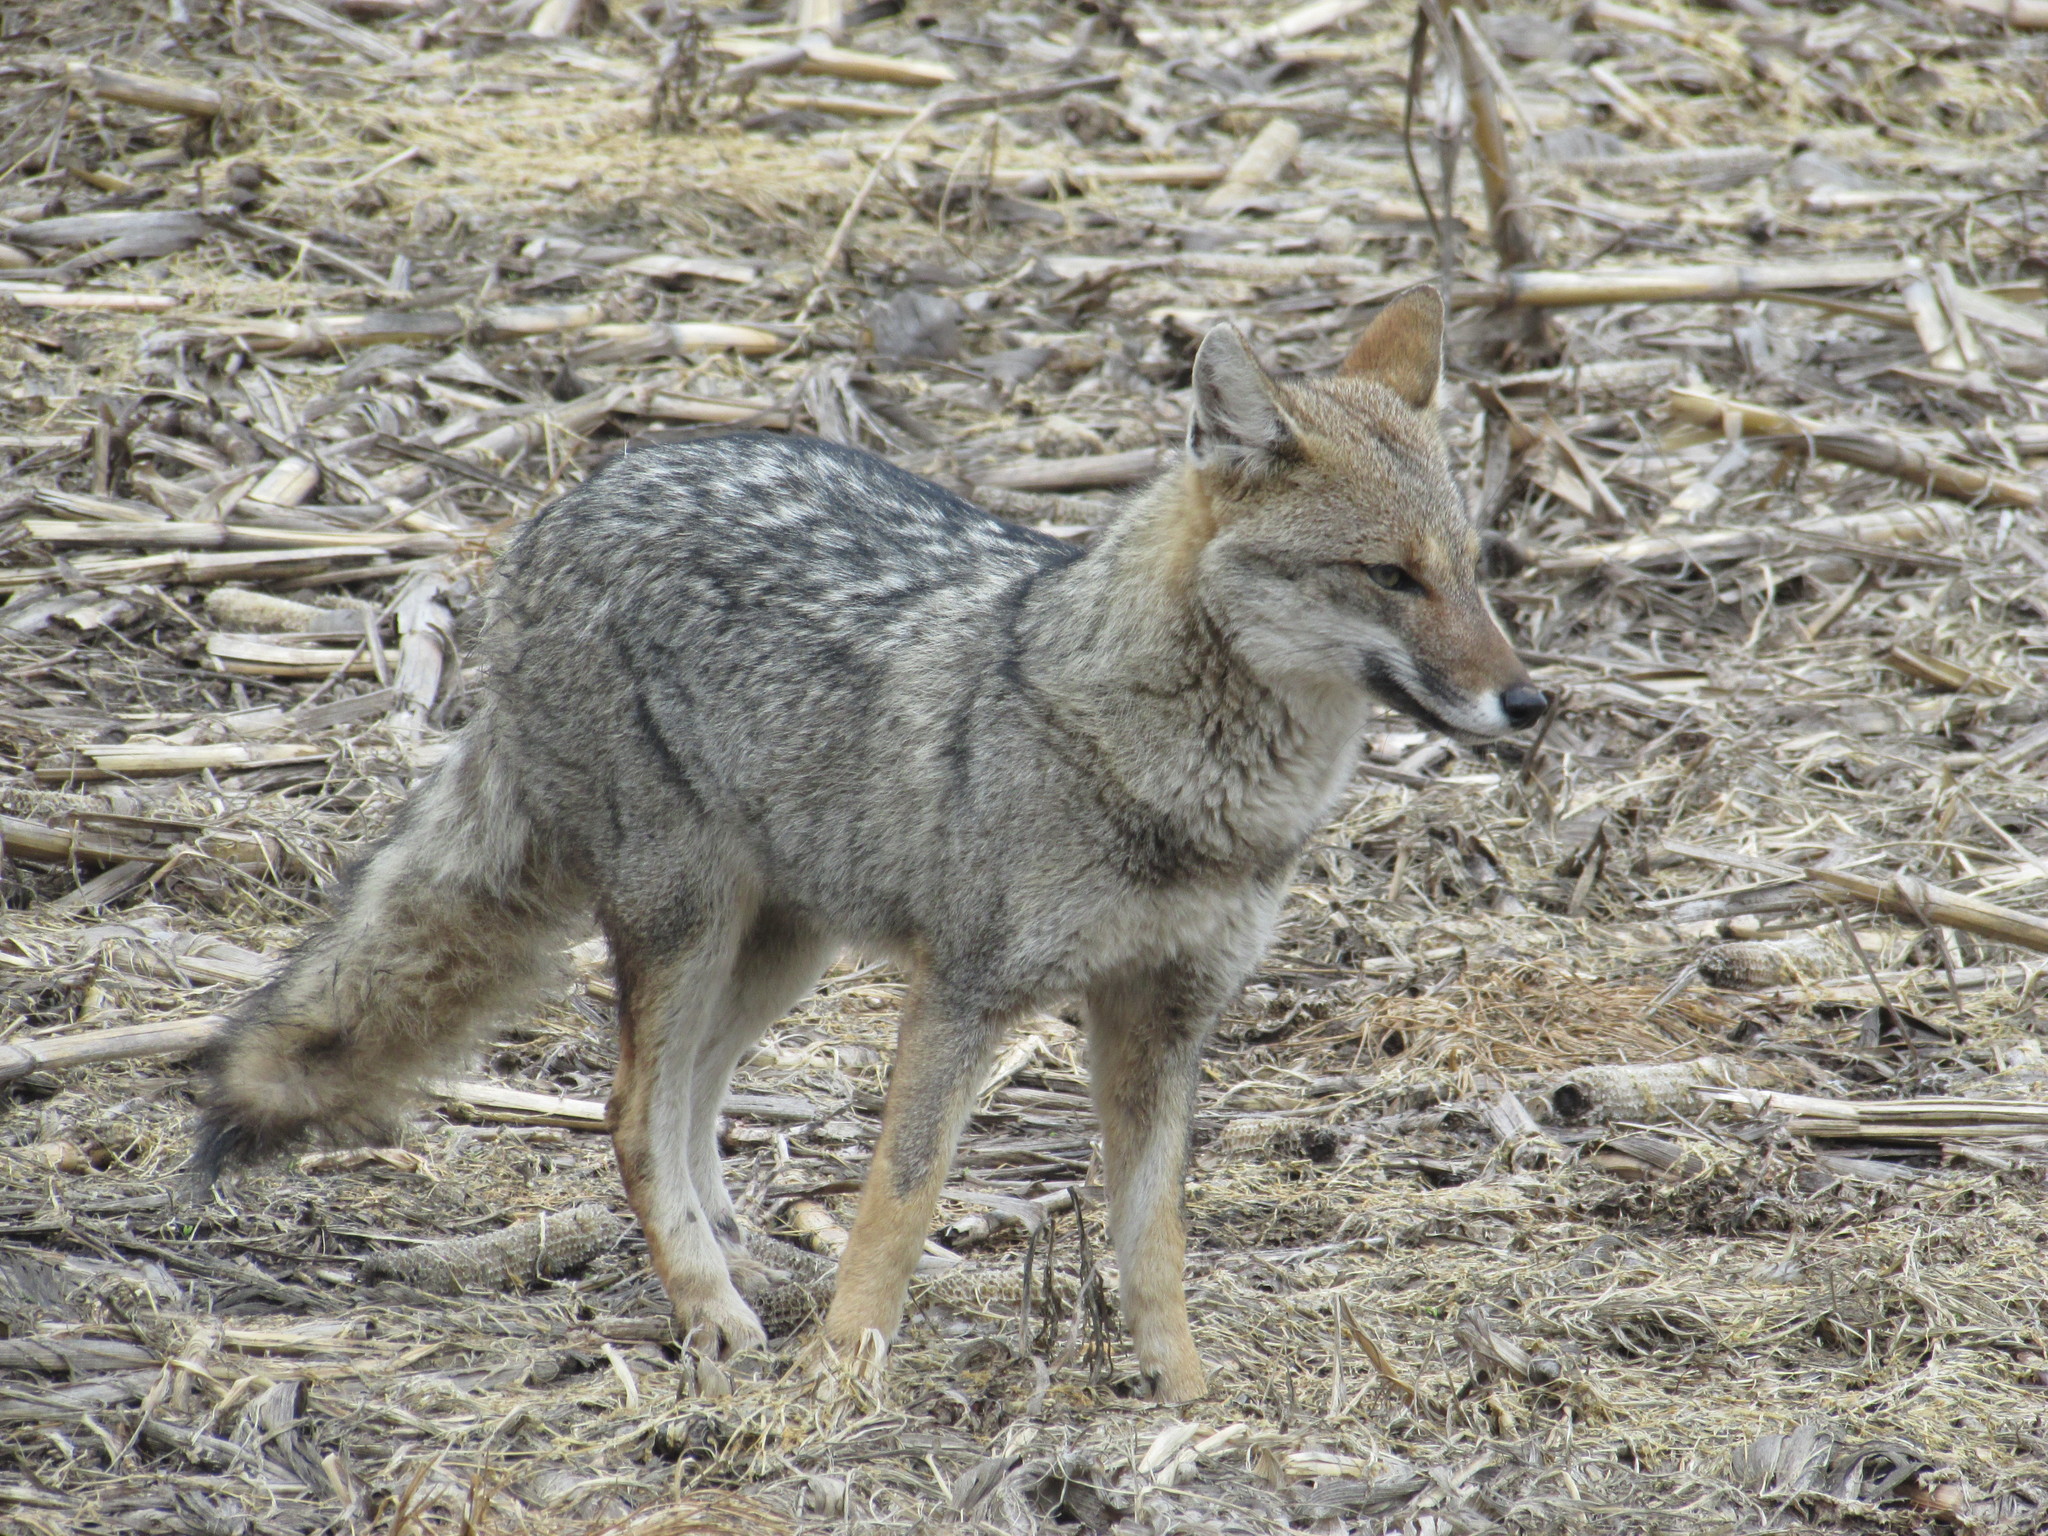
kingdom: Animalia
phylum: Chordata
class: Mammalia
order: Carnivora
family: Canidae
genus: Lycalopex
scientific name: Lycalopex gymnocercus
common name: Pampas fox
